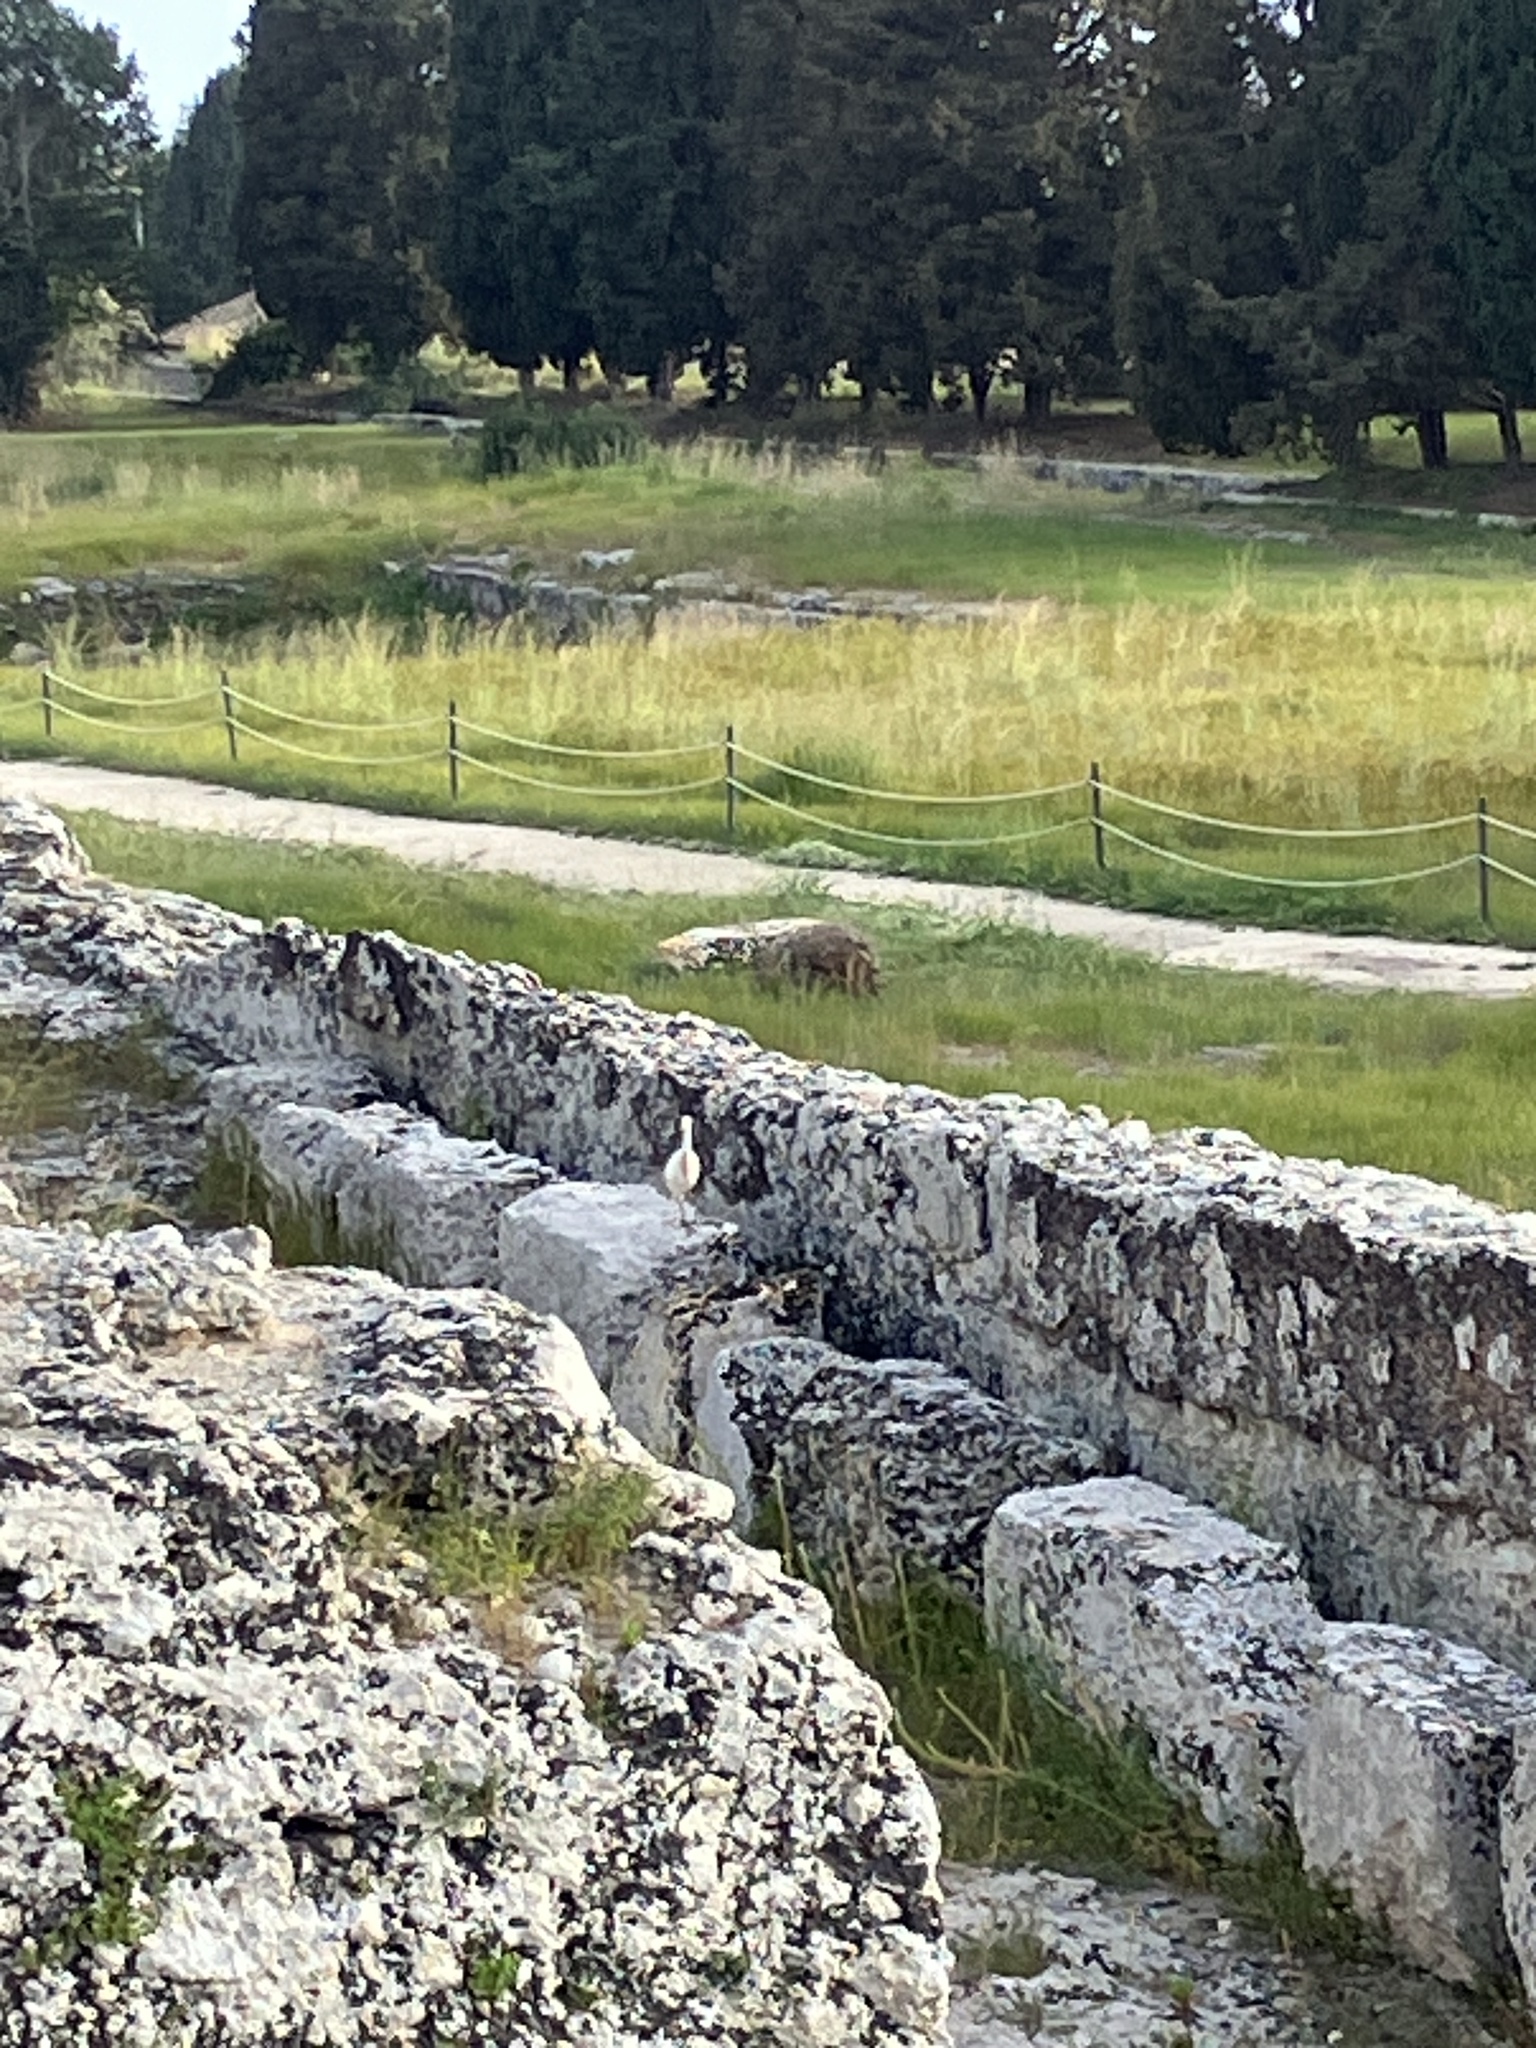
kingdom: Animalia
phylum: Chordata
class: Aves
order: Pelecaniformes
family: Ardeidae
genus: Bubulcus
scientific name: Bubulcus ibis
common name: Cattle egret
